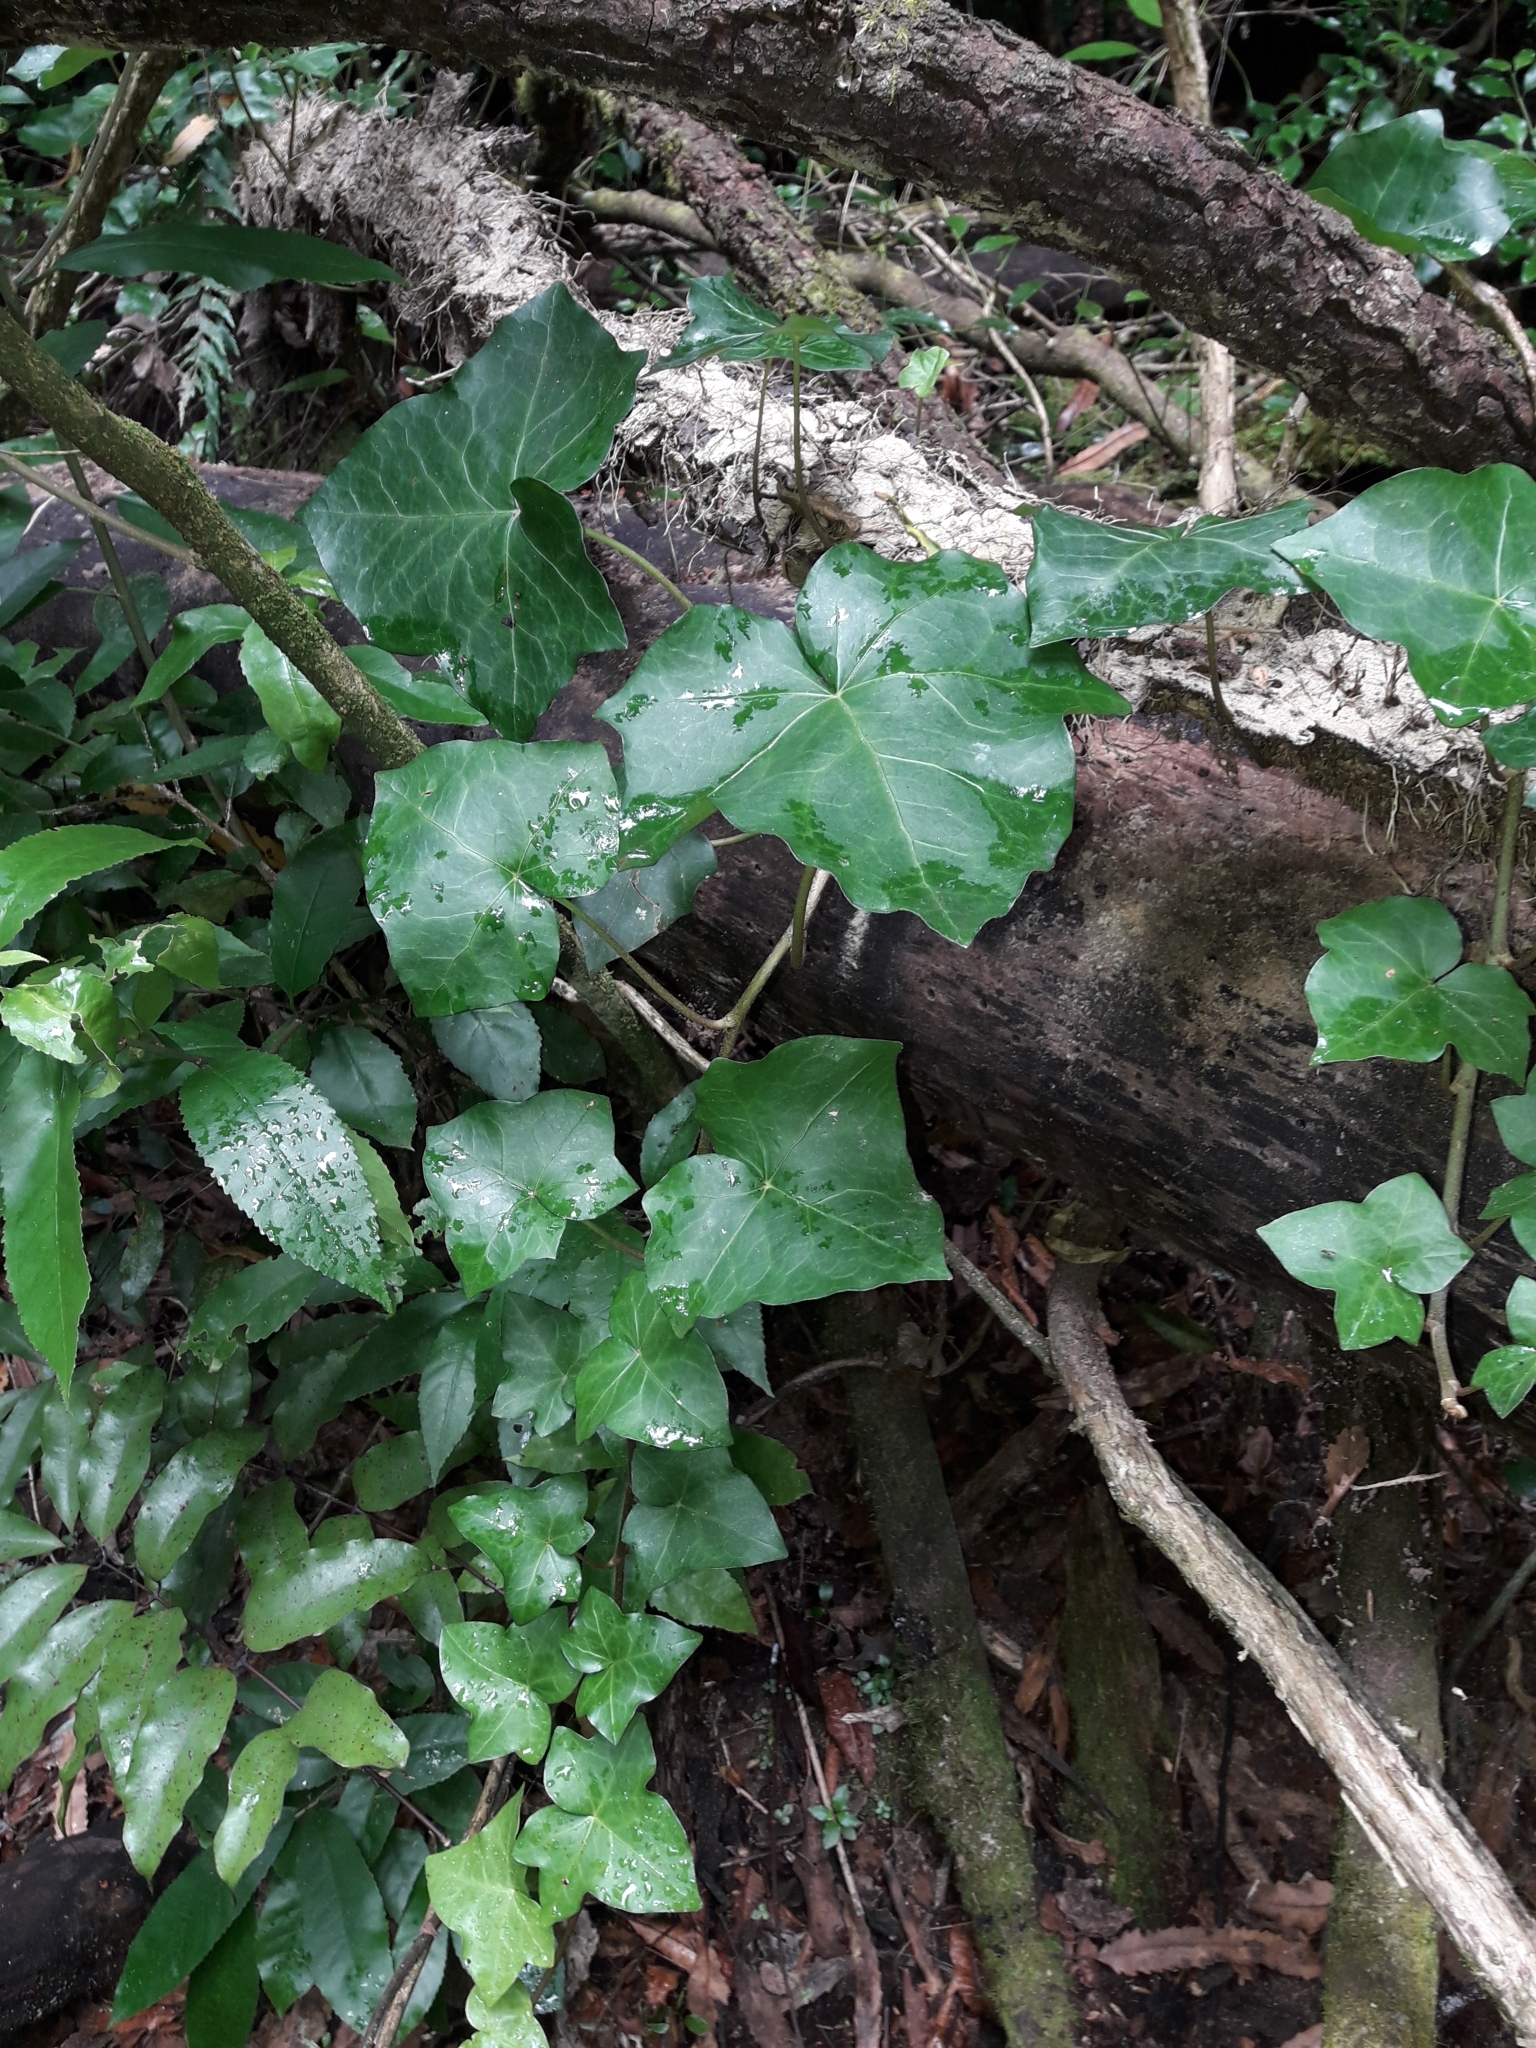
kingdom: Plantae
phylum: Tracheophyta
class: Magnoliopsida
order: Apiales
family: Araliaceae
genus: Hedera
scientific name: Hedera helix
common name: Ivy
